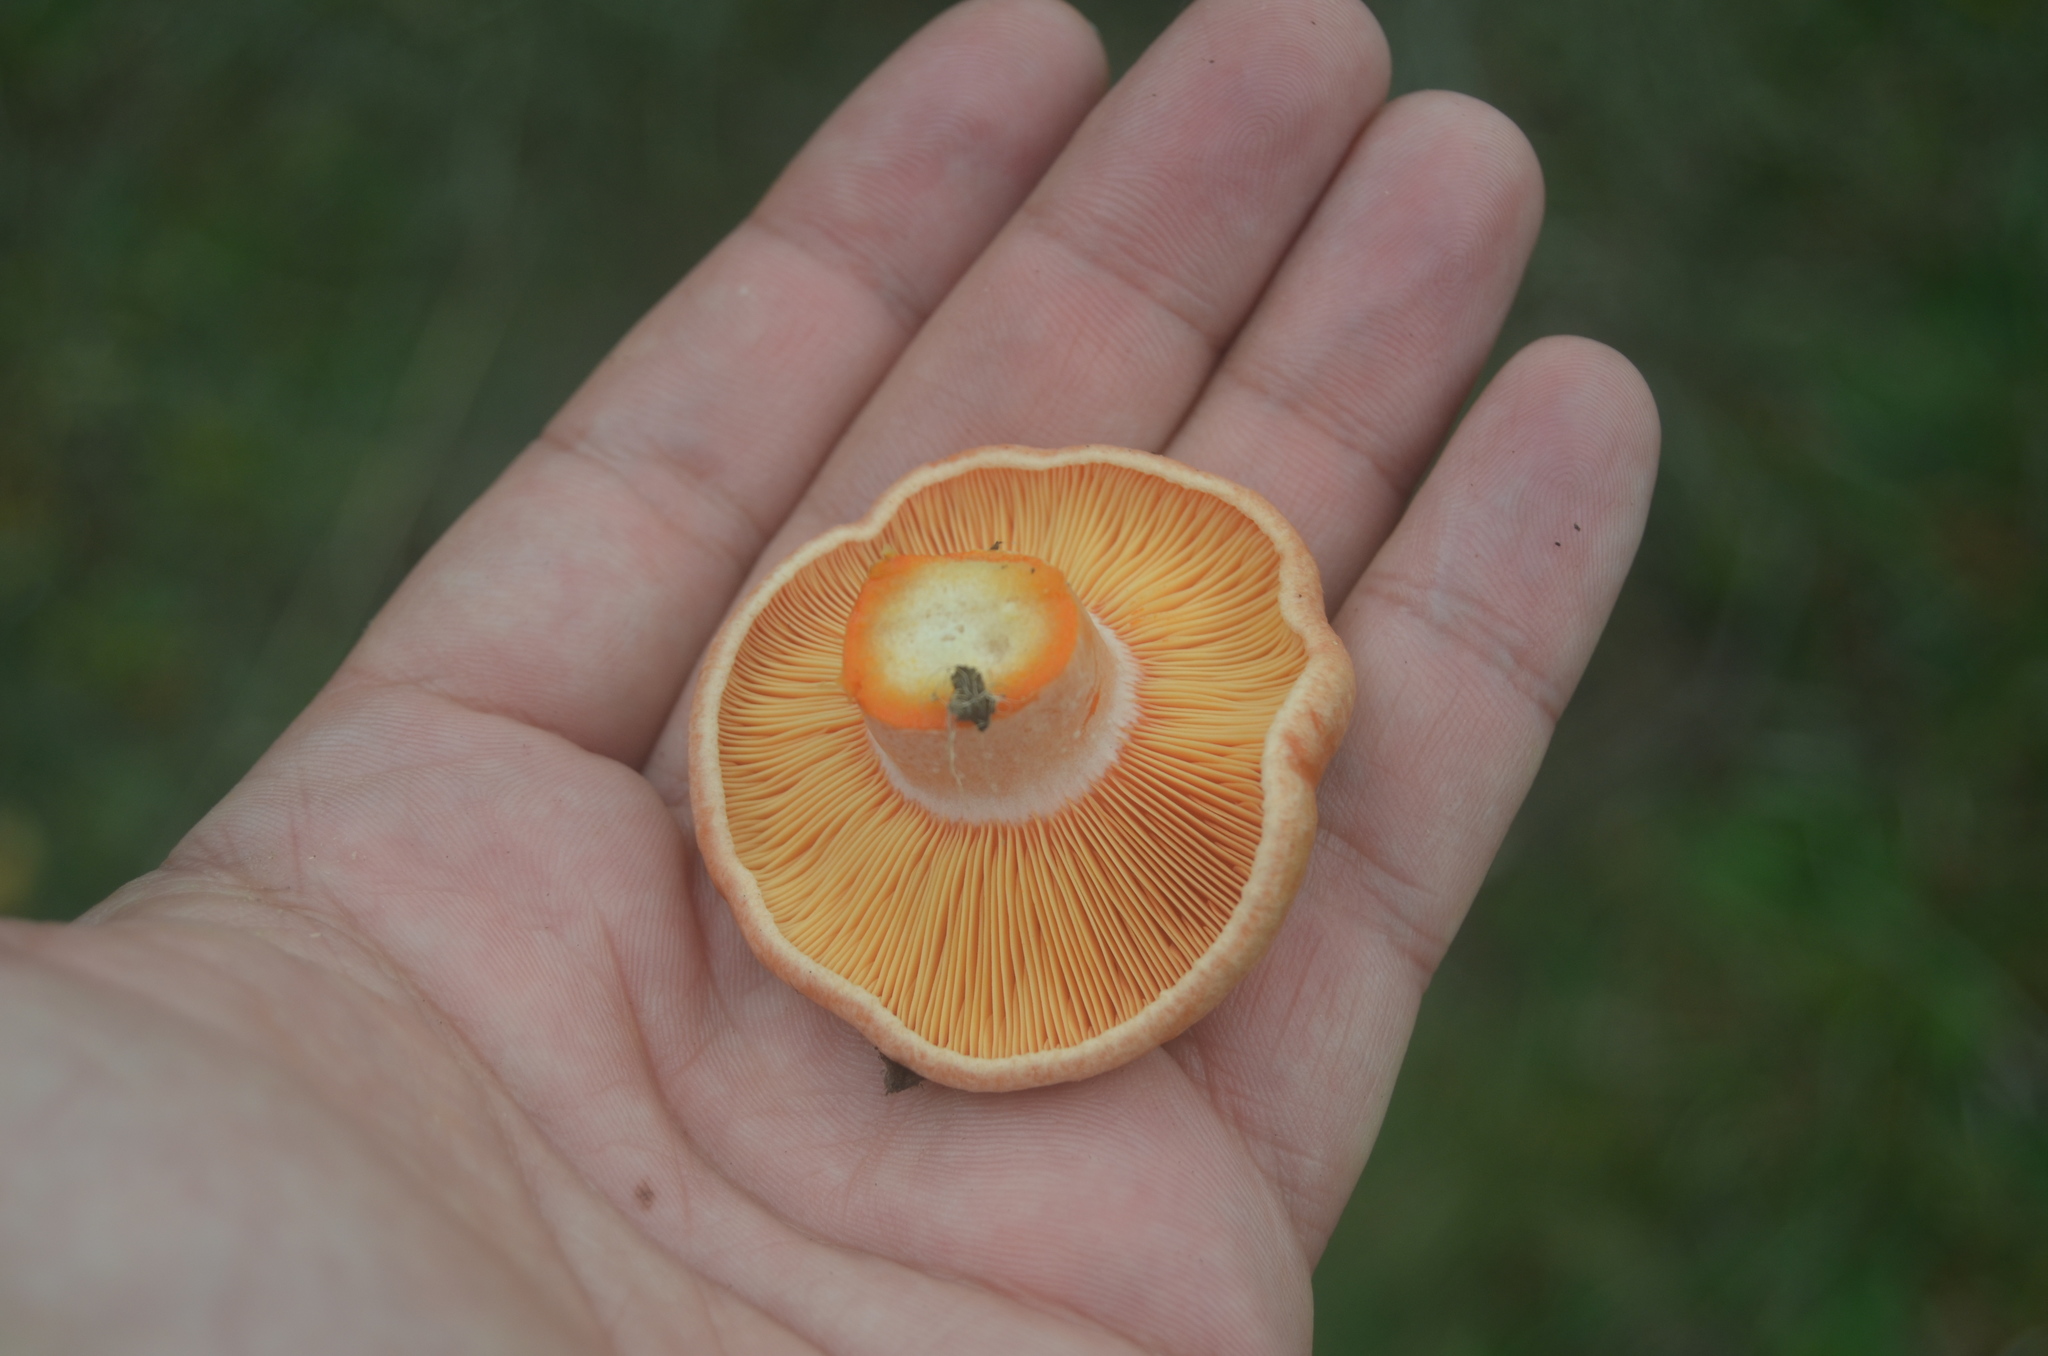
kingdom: Fungi
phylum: Basidiomycota
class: Agaricomycetes
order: Russulales
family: Russulaceae
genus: Lactarius
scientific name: Lactarius deliciosus
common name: Saffron milk-cap
